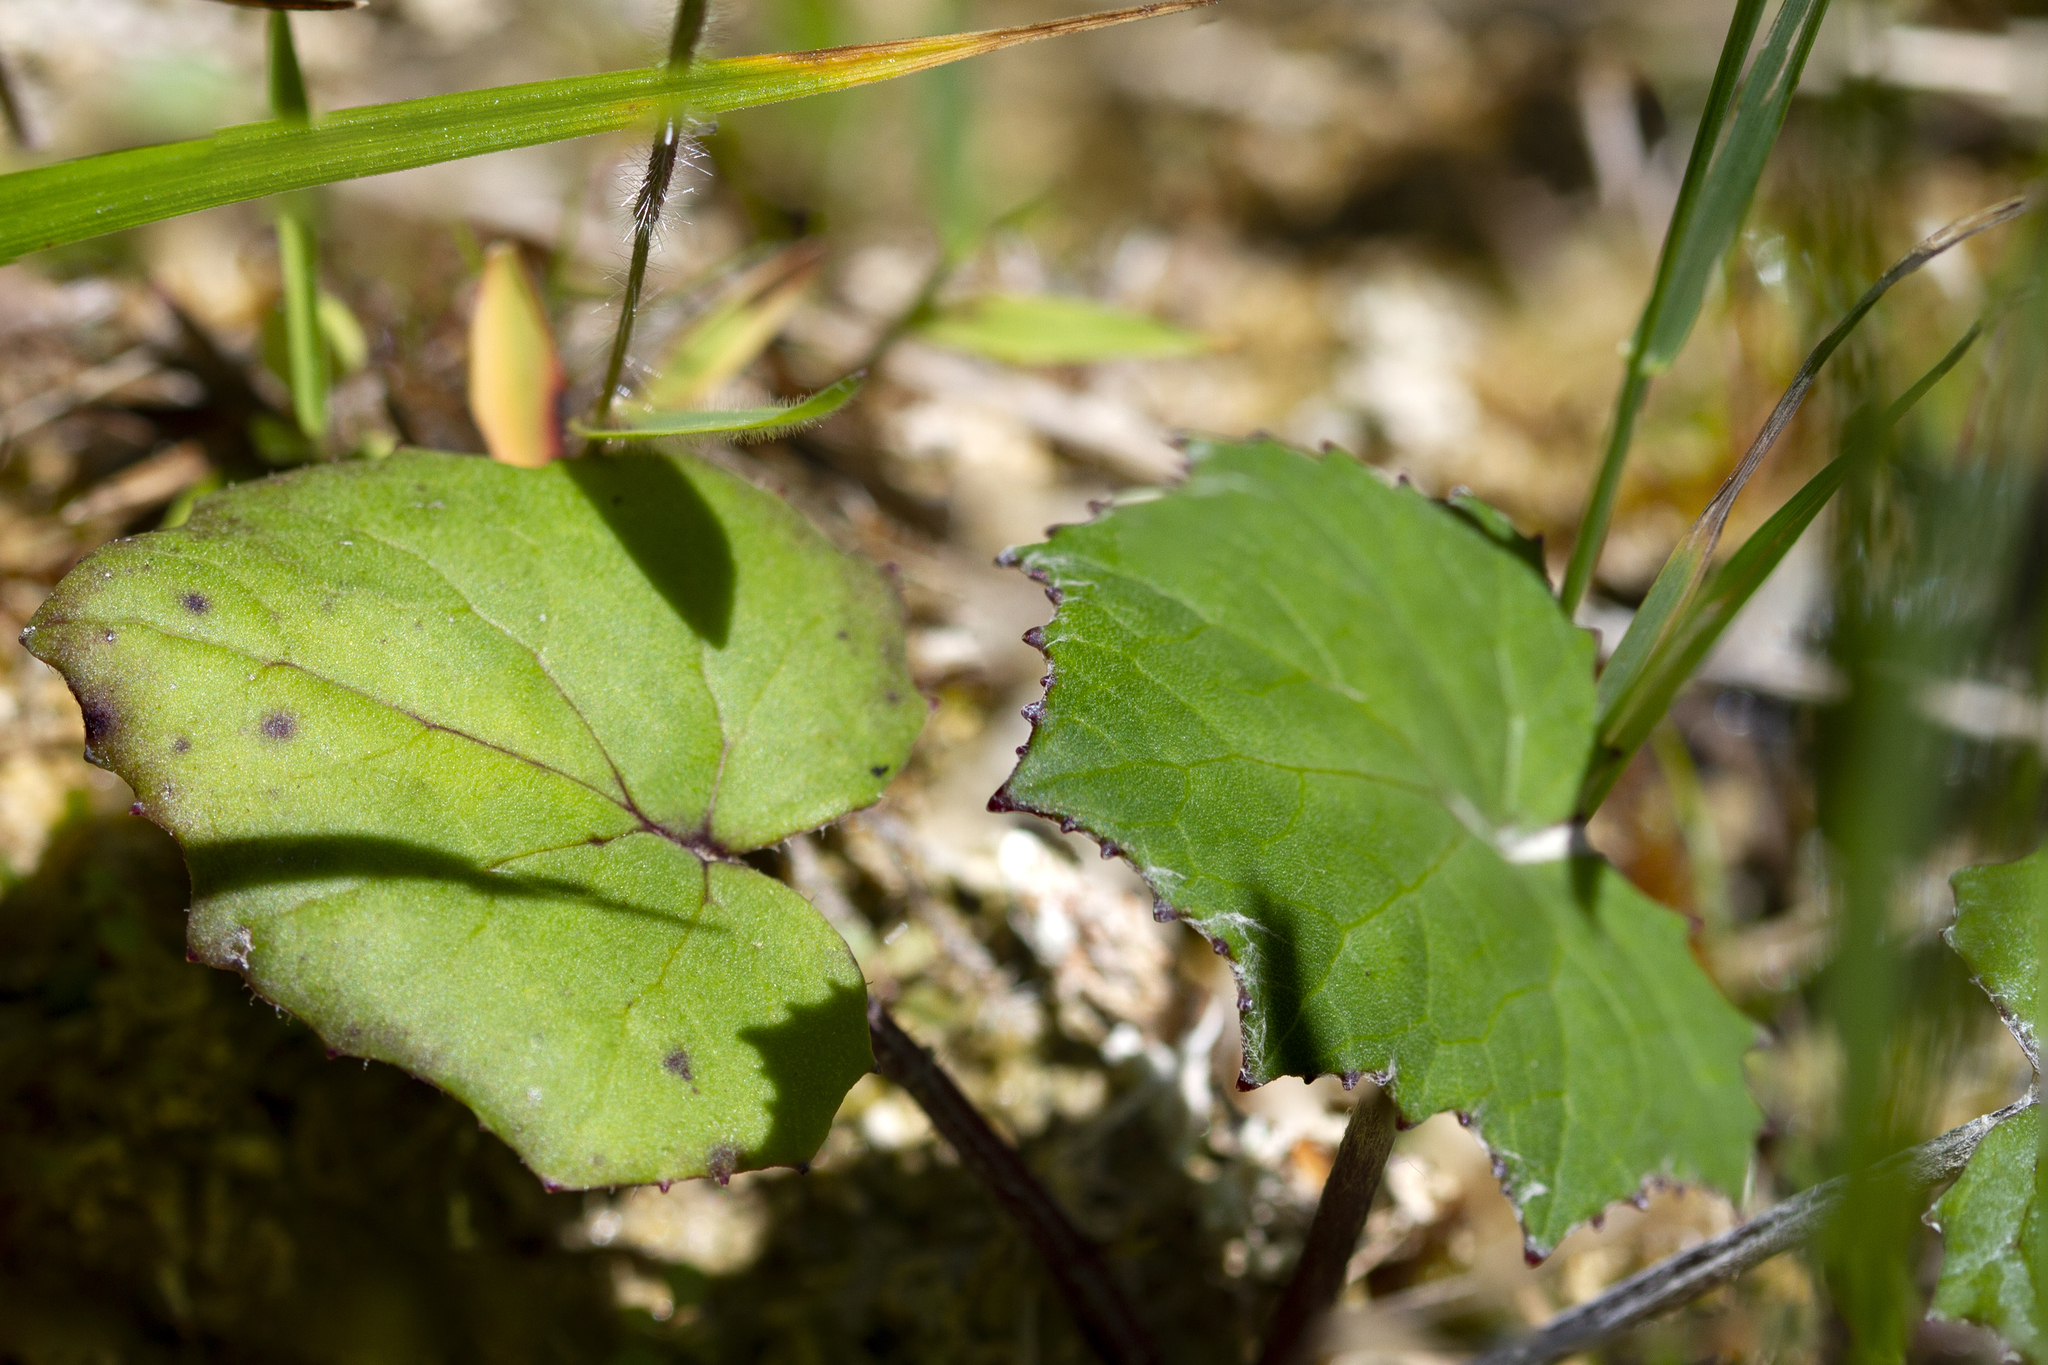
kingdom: Plantae
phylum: Tracheophyta
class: Magnoliopsida
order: Asterales
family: Asteraceae
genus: Tussilago
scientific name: Tussilago farfara
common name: Coltsfoot
